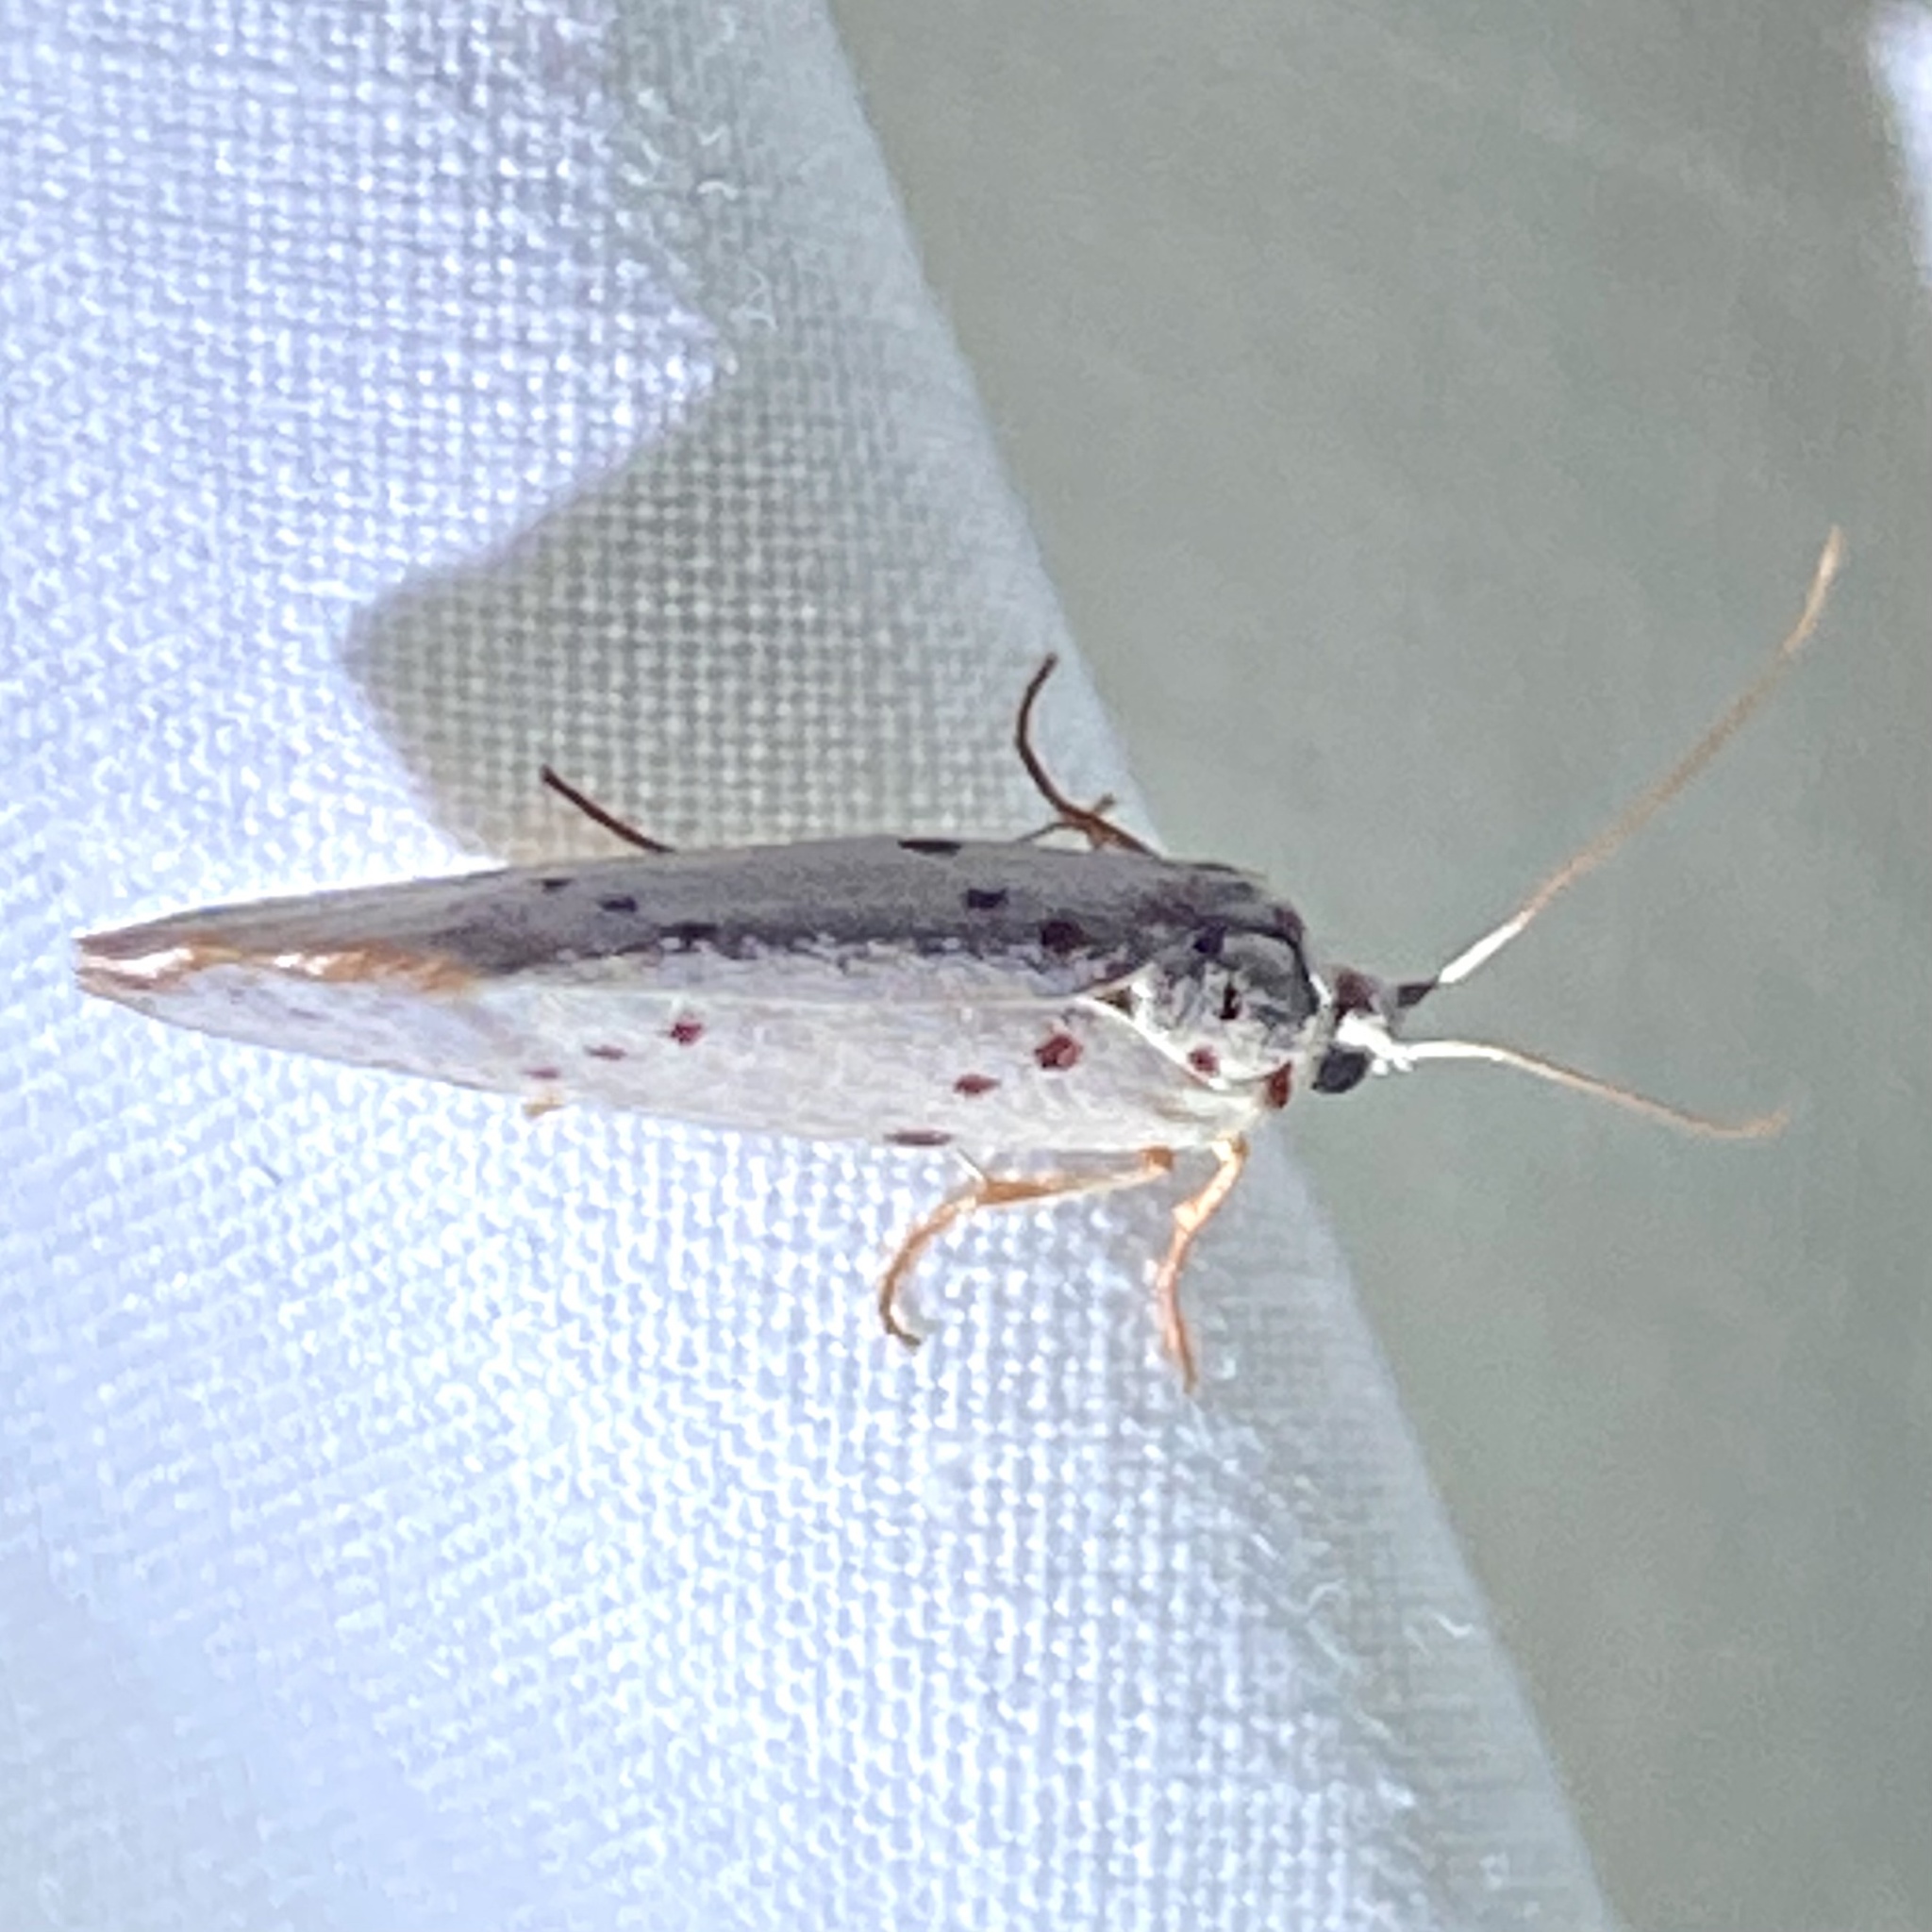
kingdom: Animalia
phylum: Arthropoda
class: Insecta
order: Lepidoptera
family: Lacturidae
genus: Lactura
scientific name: Lactura
